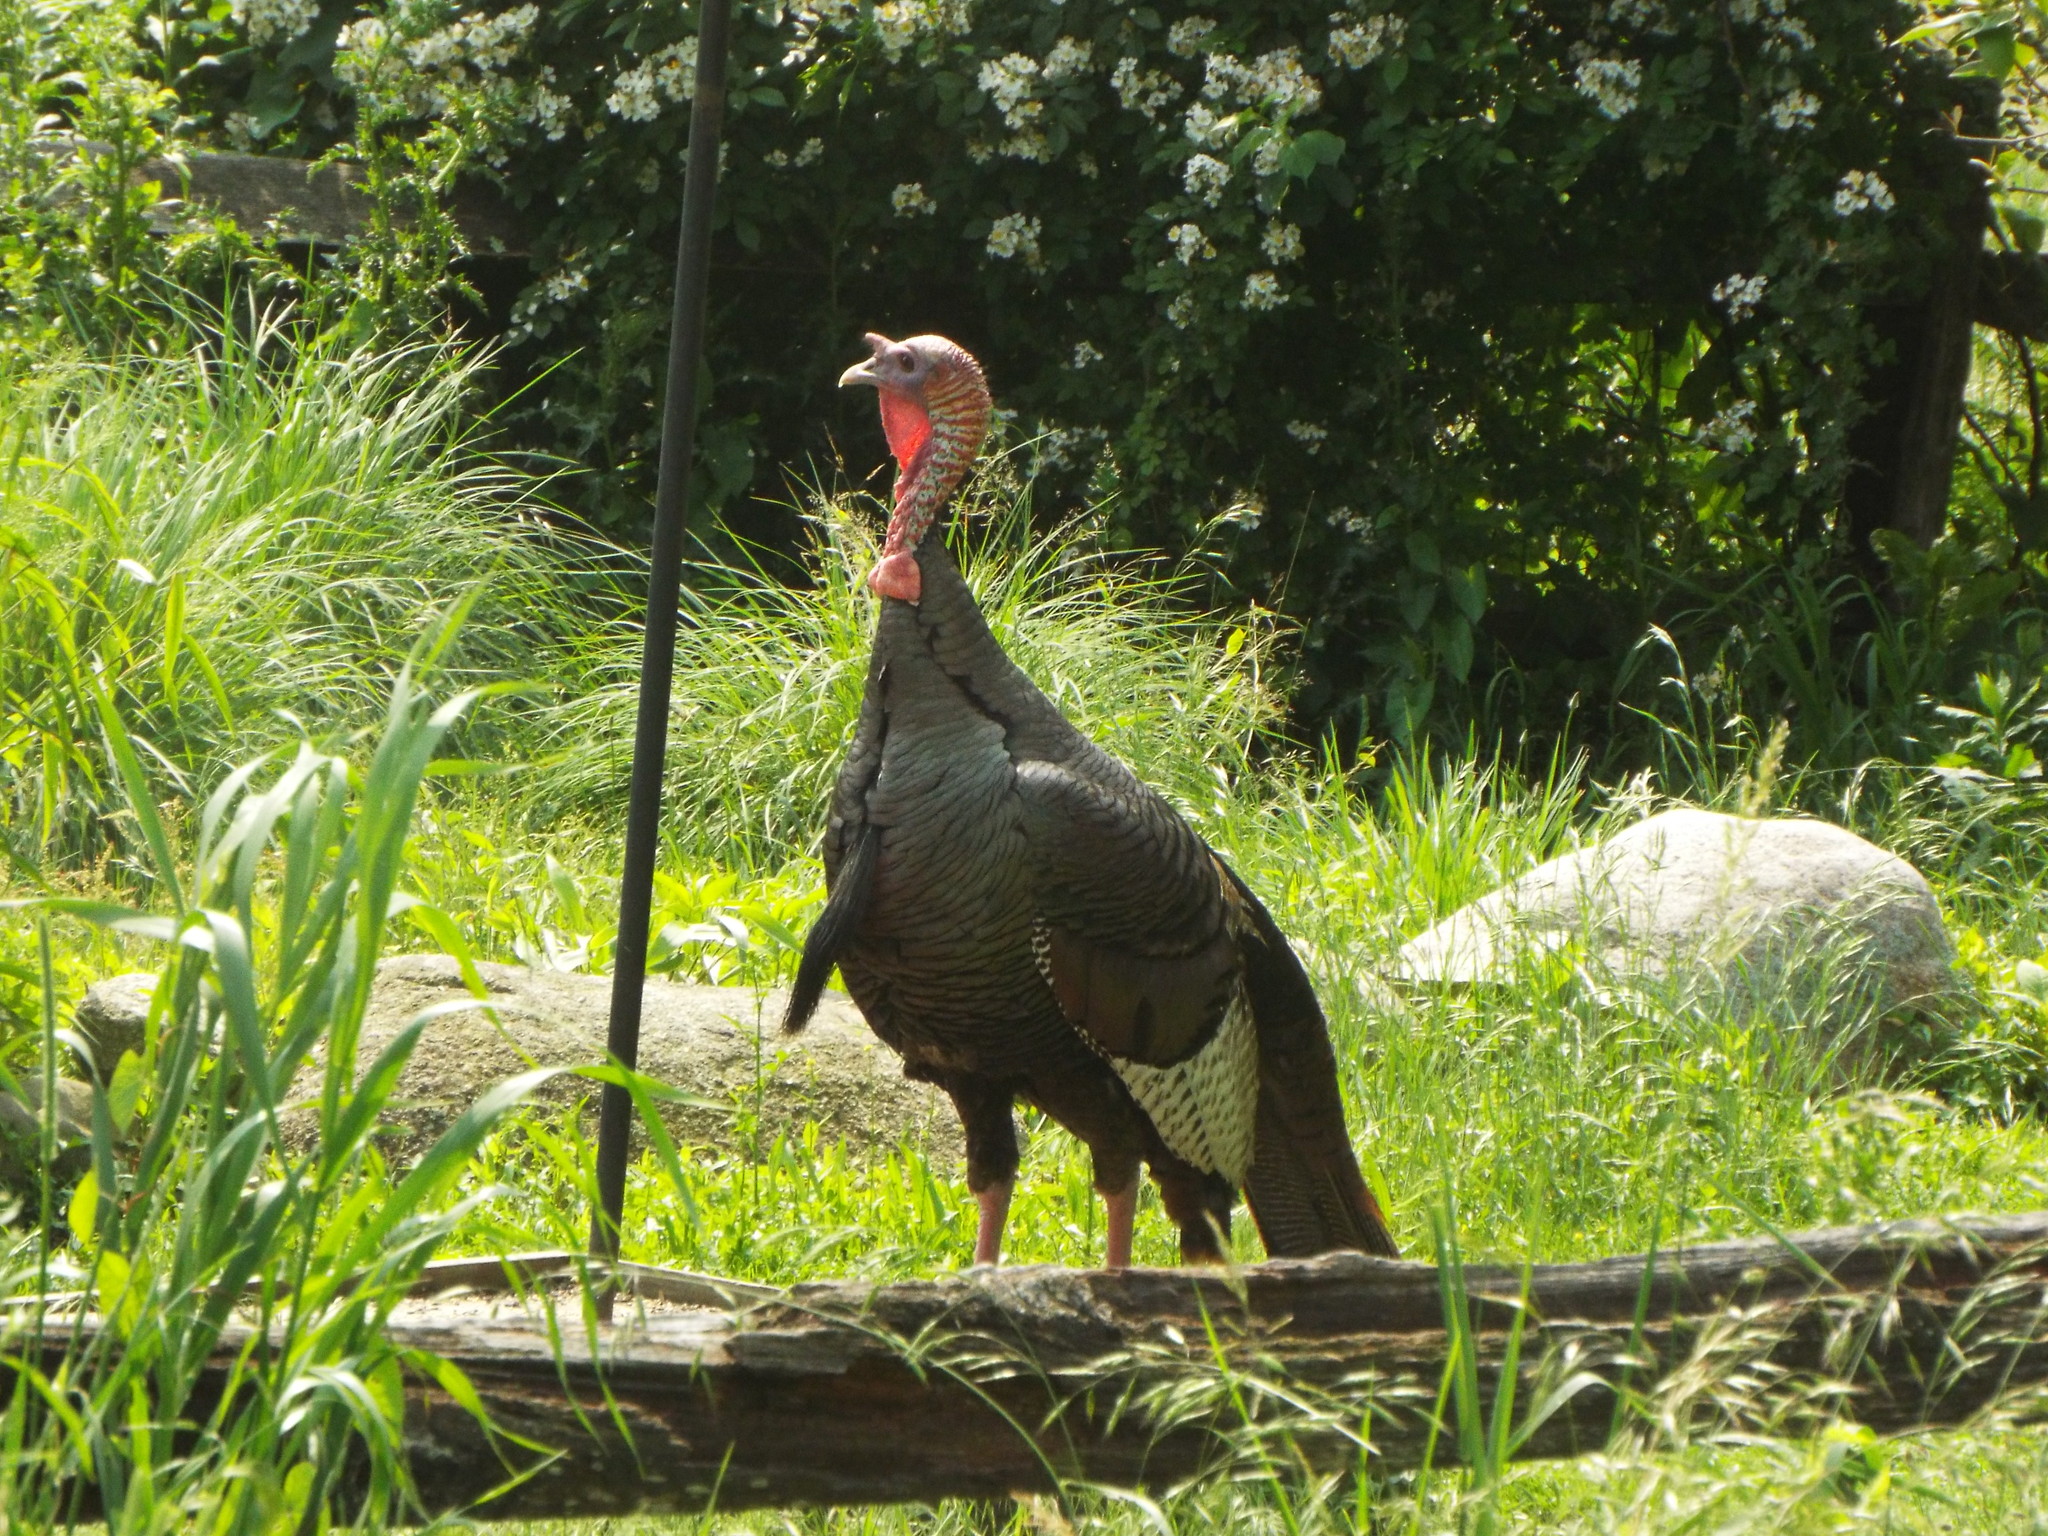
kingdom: Animalia
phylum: Chordata
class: Aves
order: Galliformes
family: Phasianidae
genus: Meleagris
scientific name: Meleagris gallopavo
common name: Wild turkey
